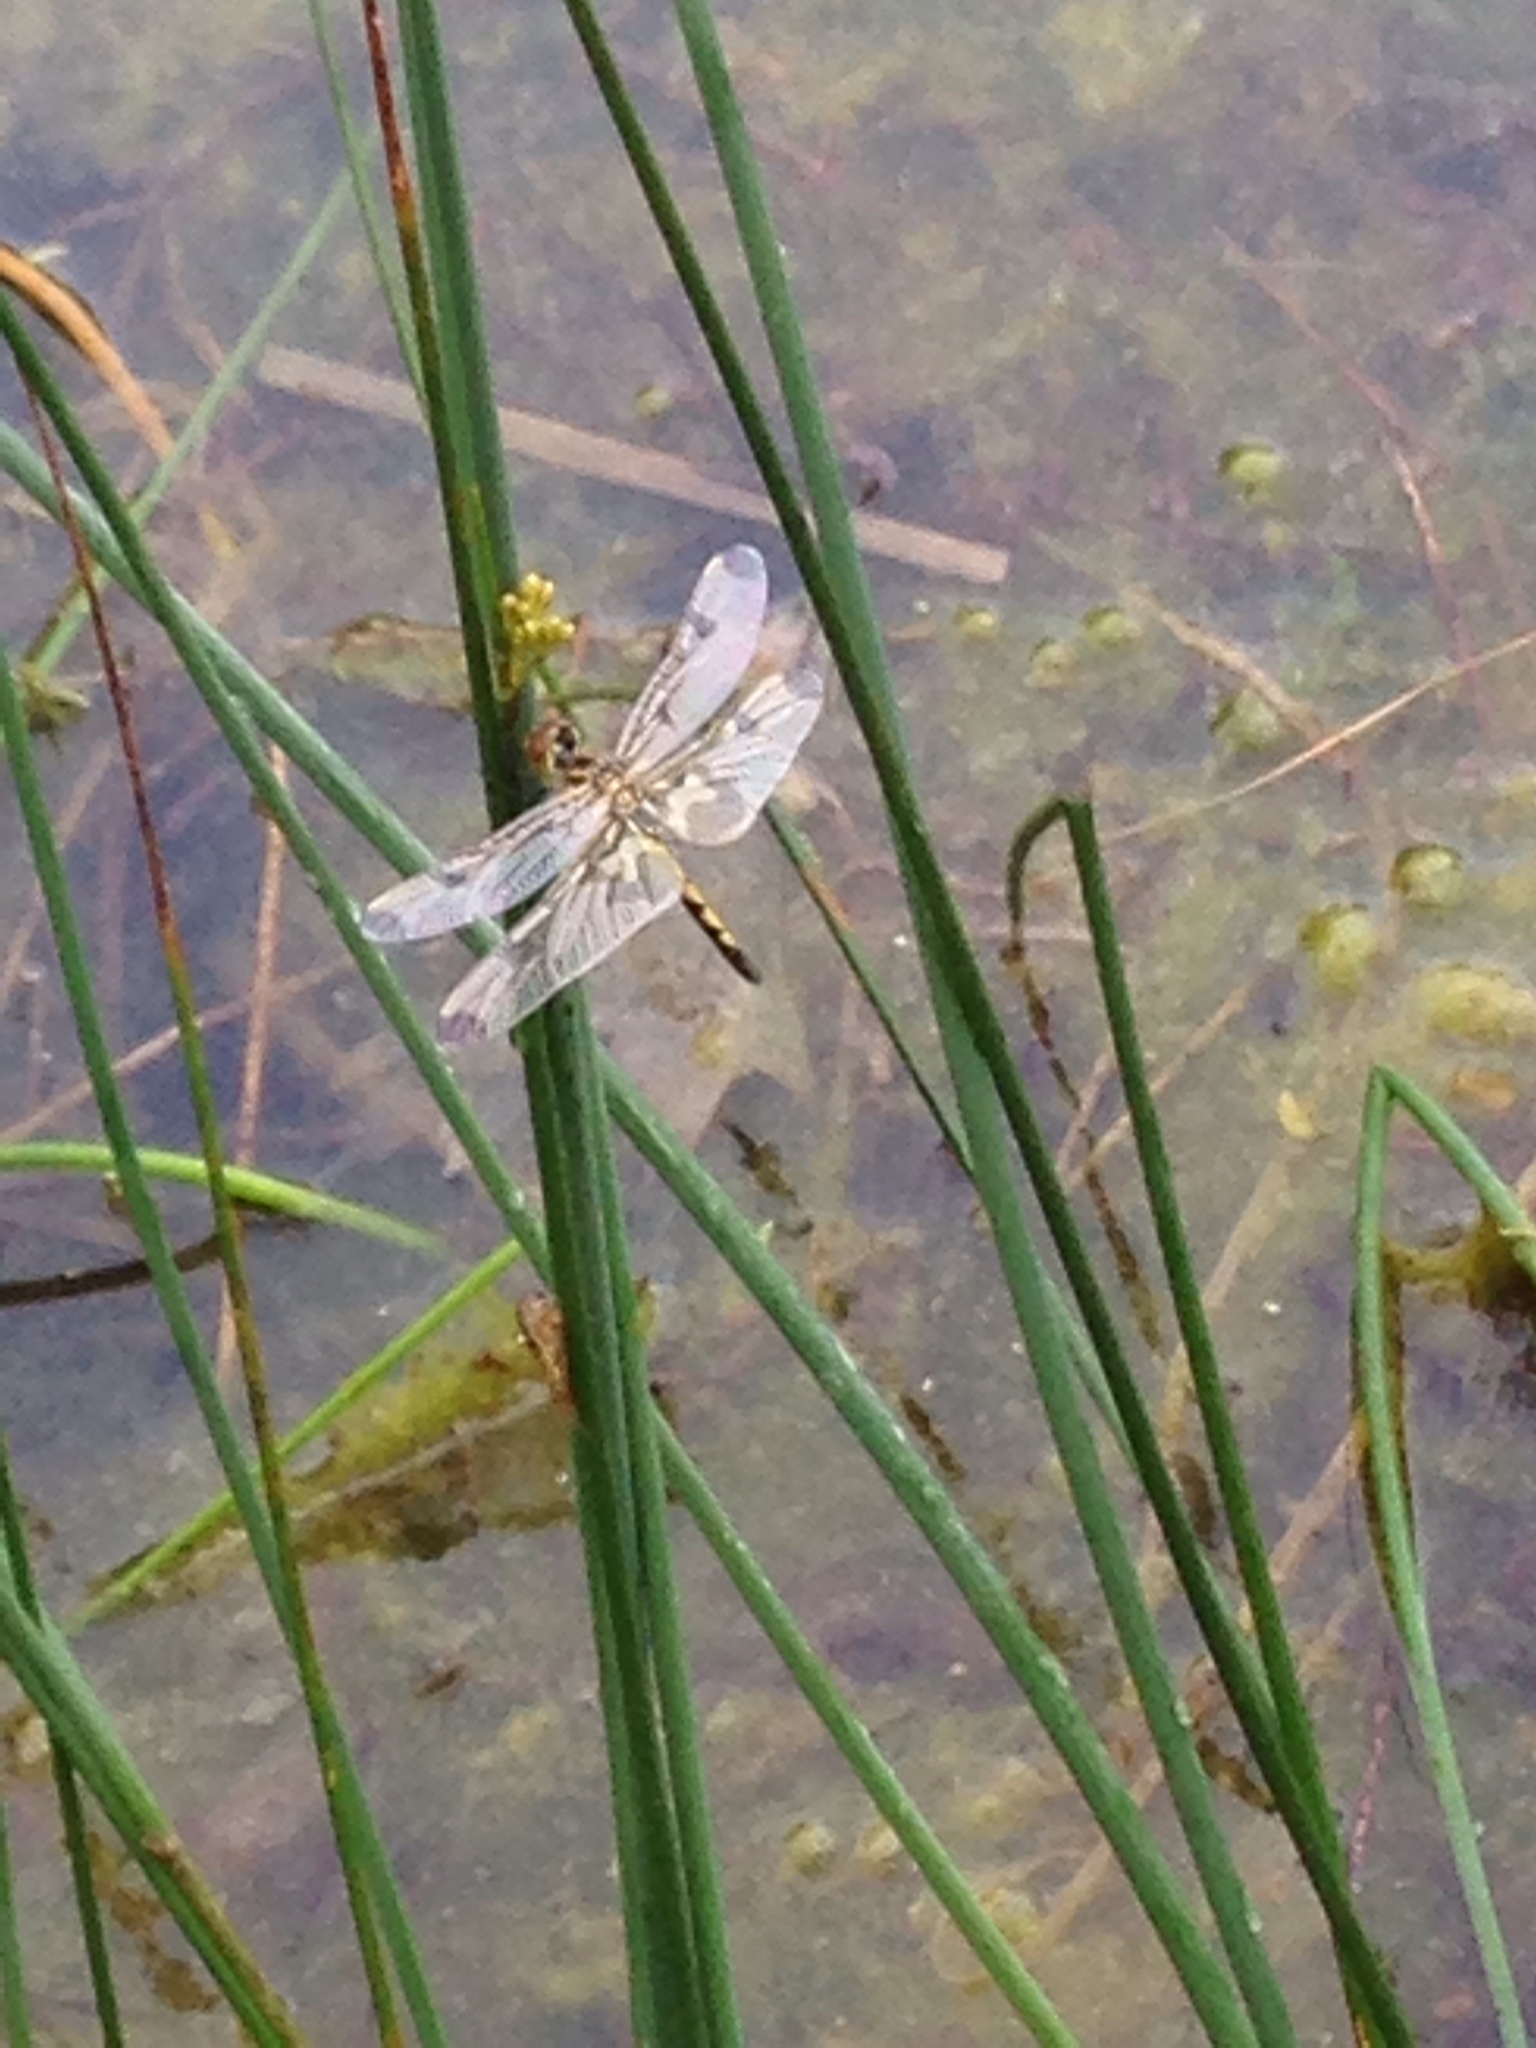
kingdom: Animalia
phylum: Arthropoda
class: Insecta
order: Odonata
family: Libellulidae
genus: Celithemis
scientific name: Celithemis elisa
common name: Calico pennant
